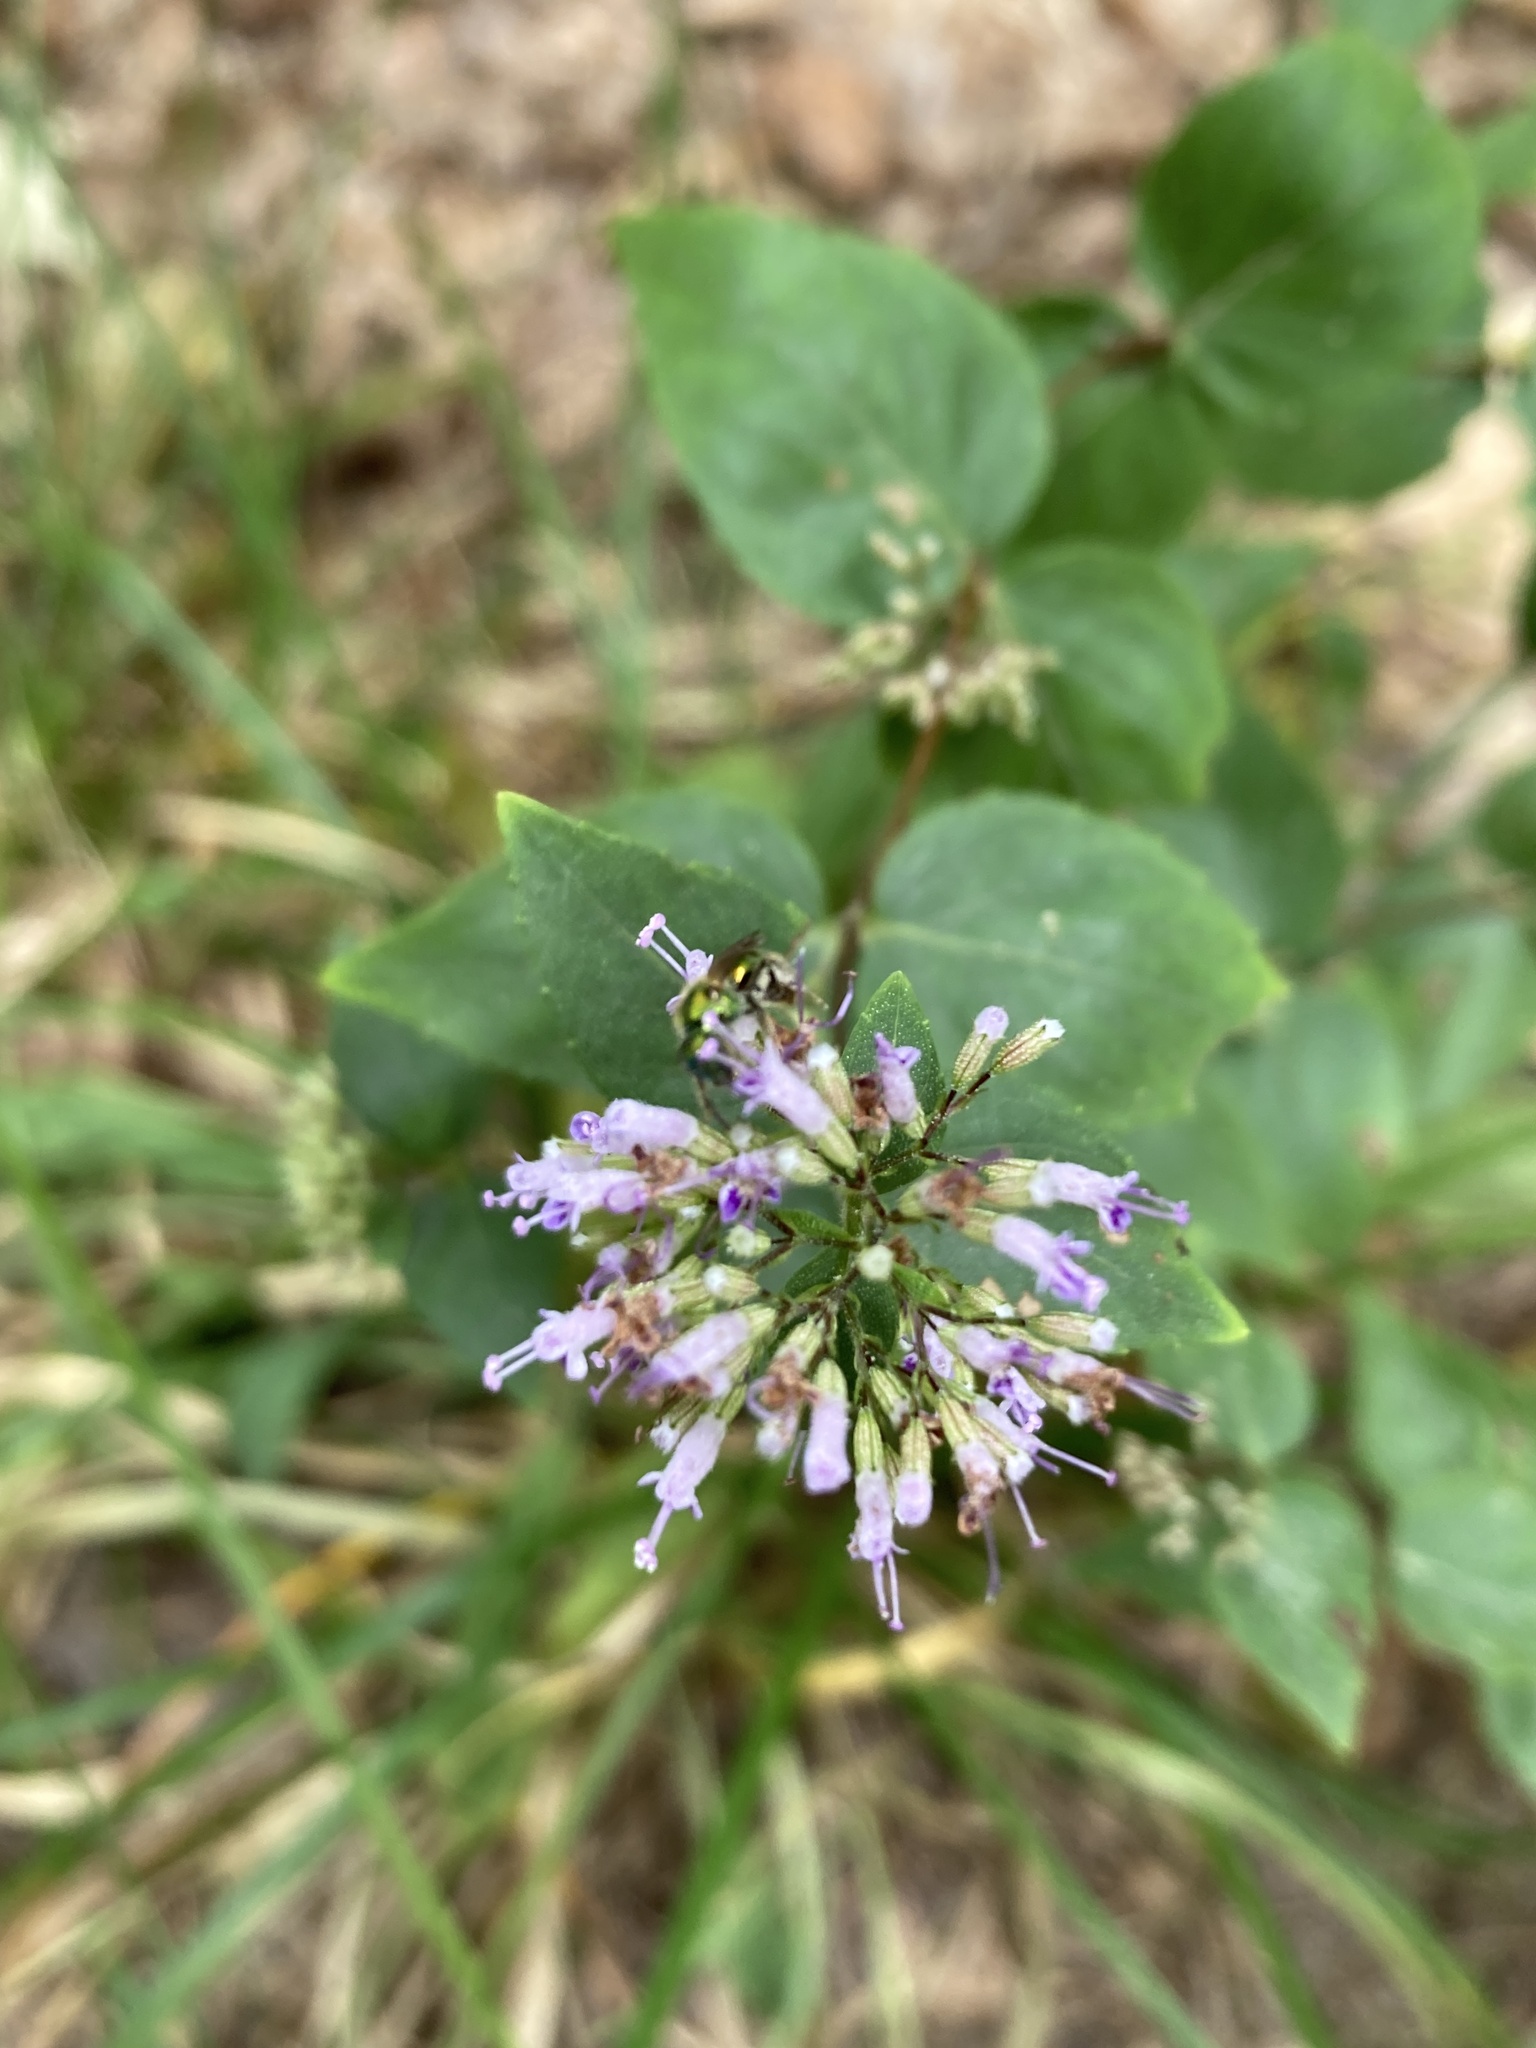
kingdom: Plantae
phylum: Tracheophyta
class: Magnoliopsida
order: Lamiales
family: Lamiaceae
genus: Cunila
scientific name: Cunila origanoides
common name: American dittany
